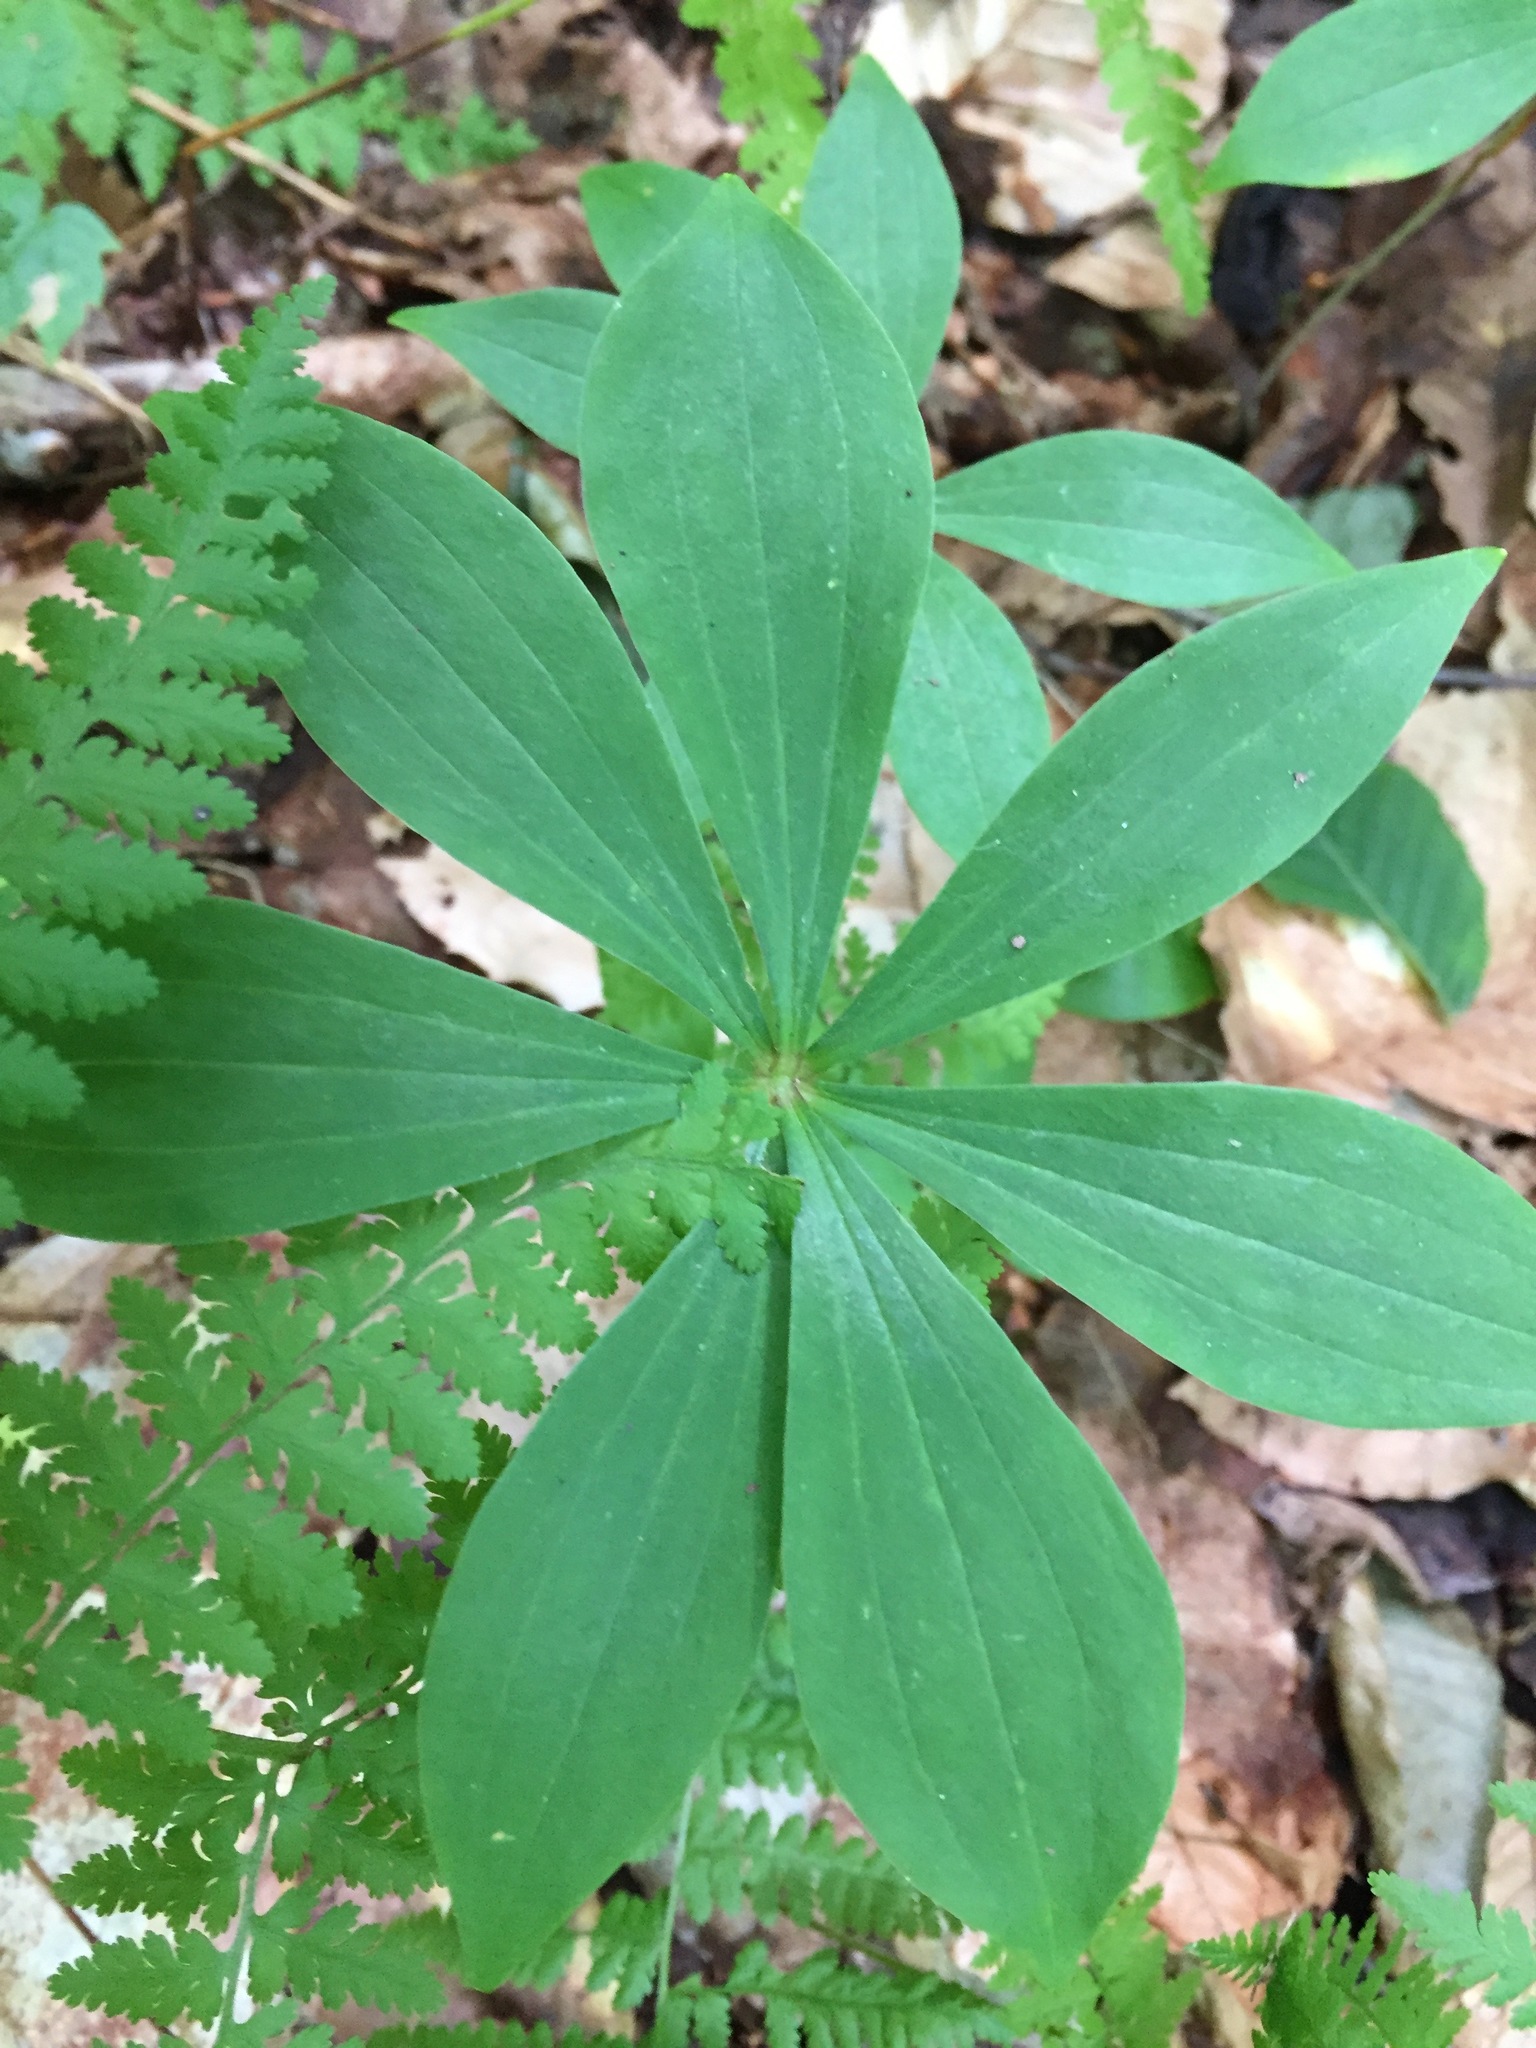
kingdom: Plantae
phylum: Tracheophyta
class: Liliopsida
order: Liliales
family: Liliaceae
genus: Medeola
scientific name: Medeola virginiana
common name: Indian cucumber-root
